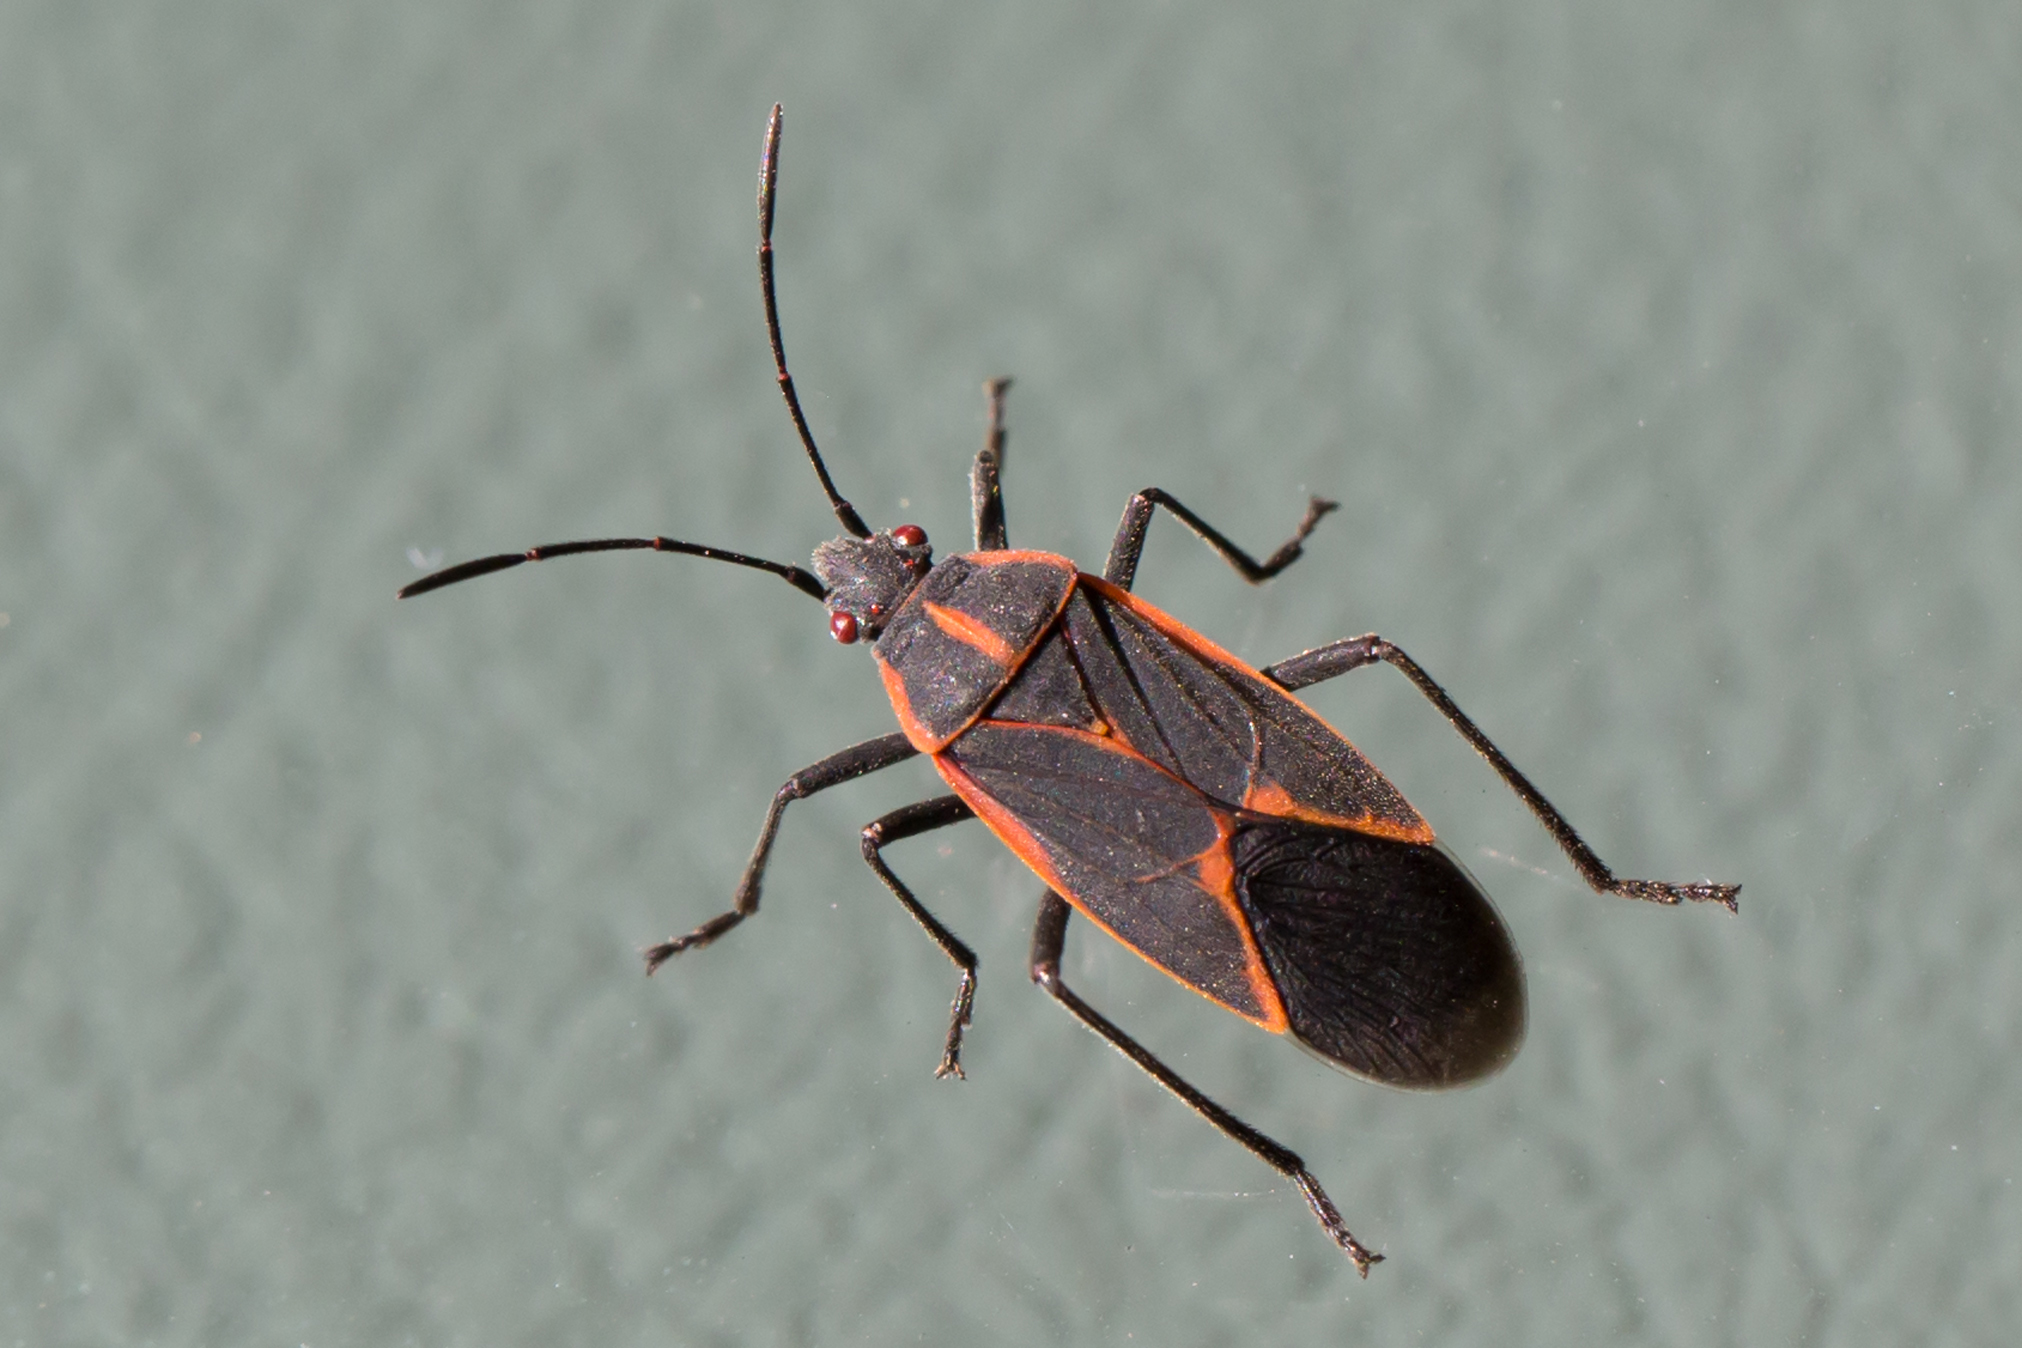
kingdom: Animalia
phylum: Arthropoda
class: Insecta
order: Hemiptera
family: Rhopalidae
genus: Boisea
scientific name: Boisea trivittata
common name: Boxelder bug
